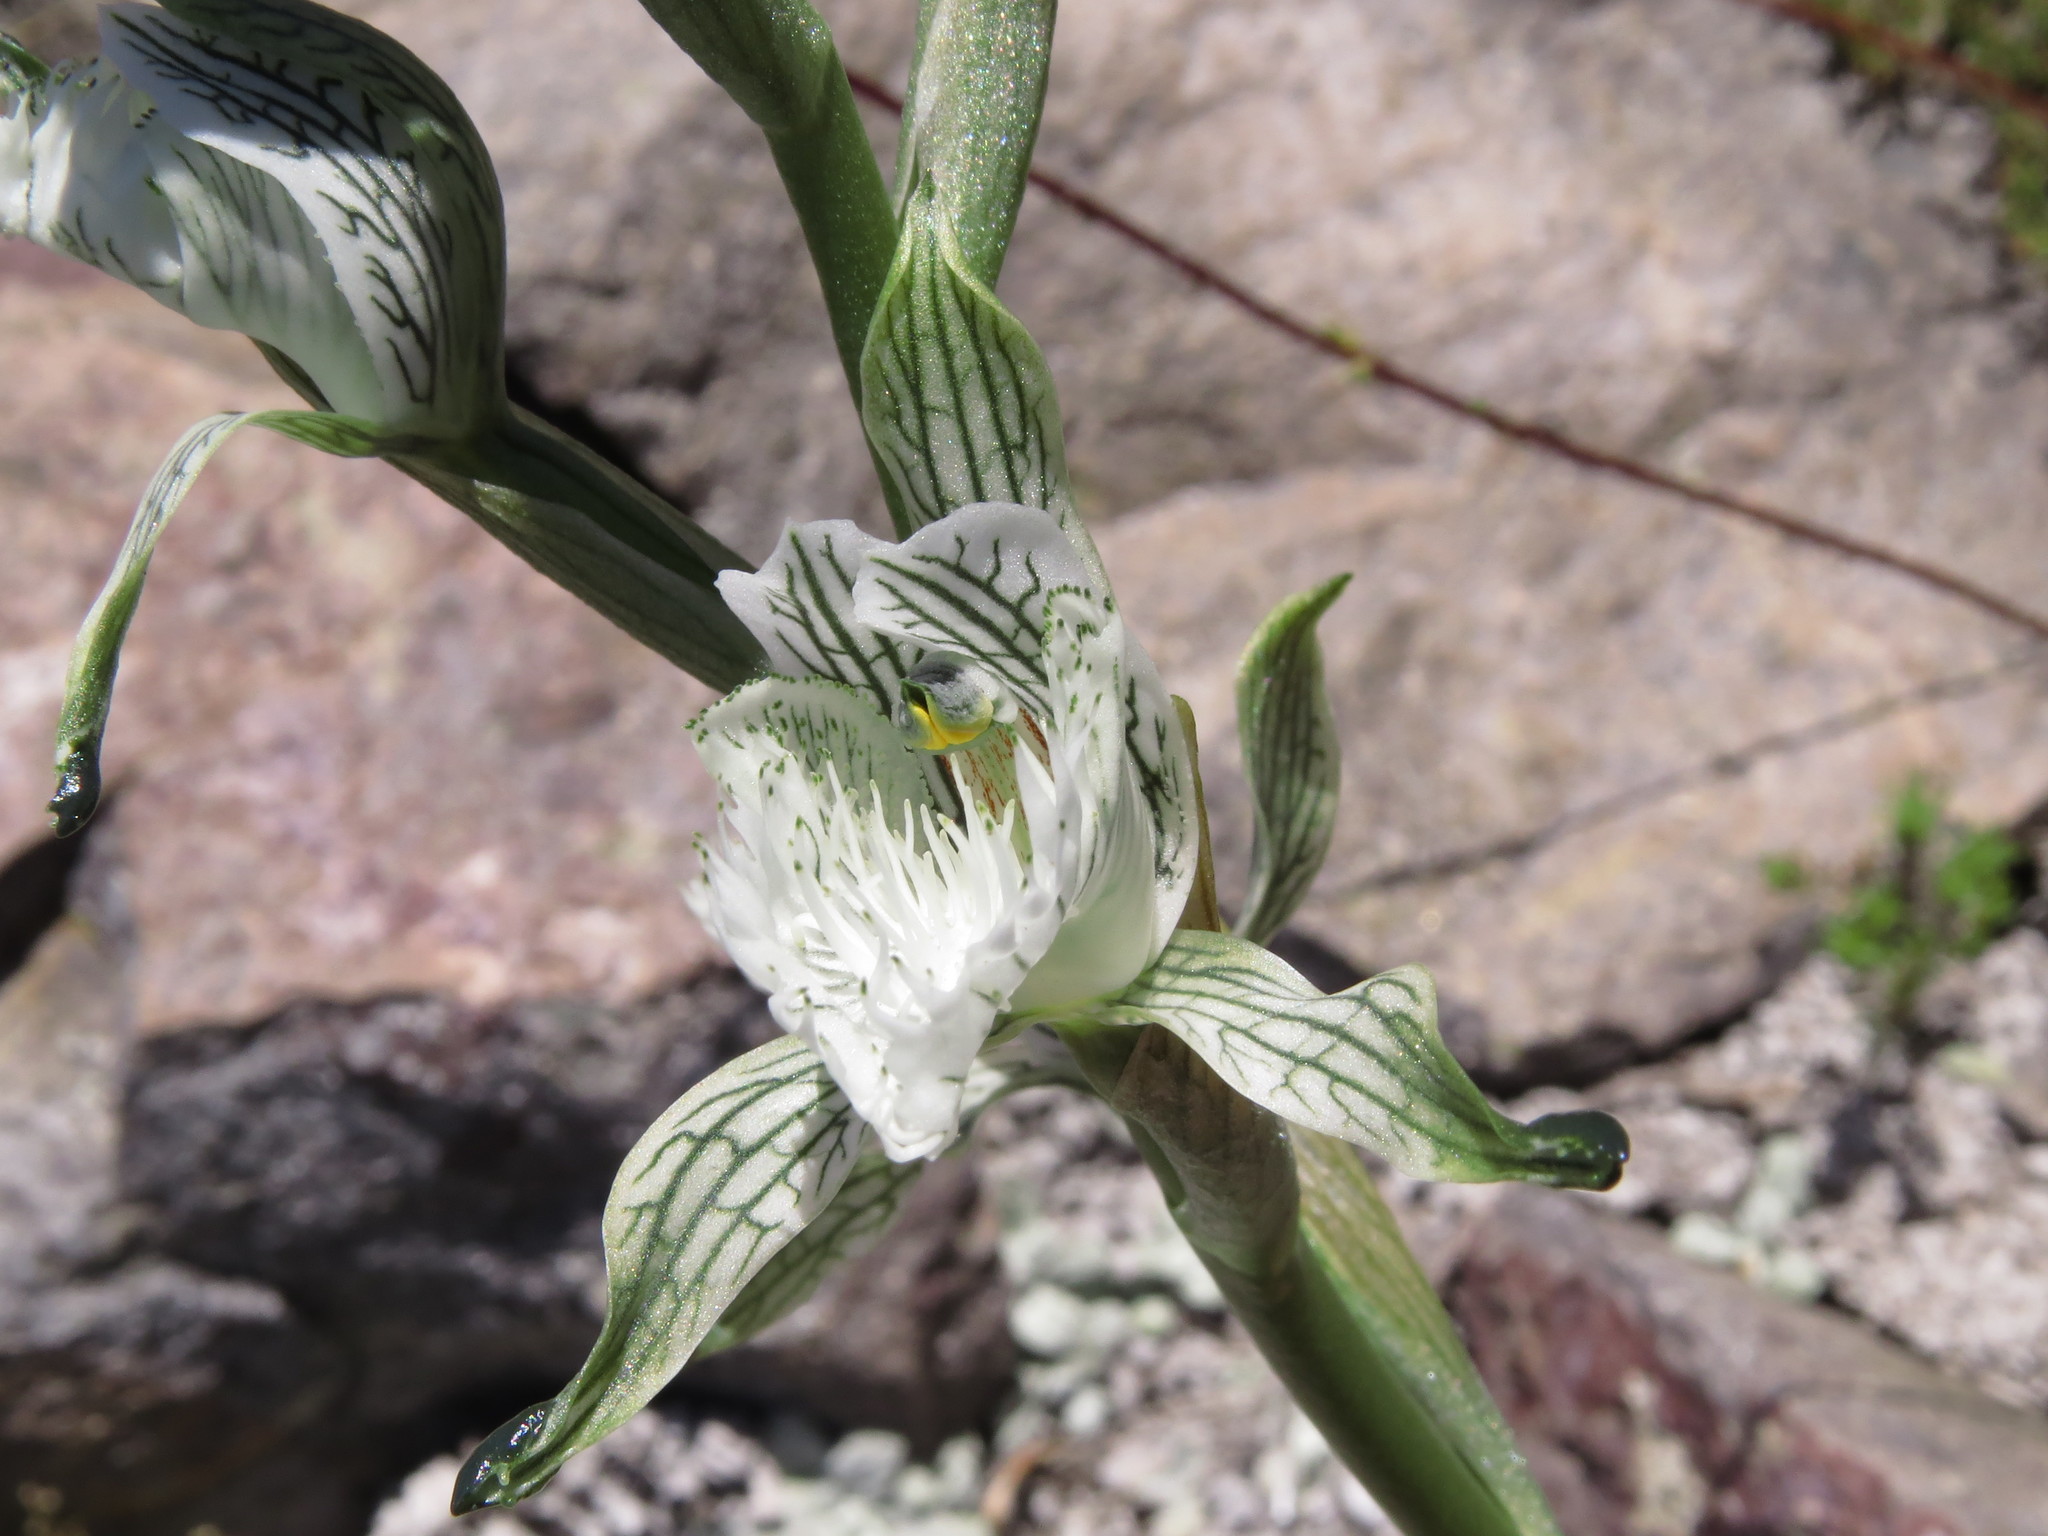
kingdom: Plantae
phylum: Tracheophyta
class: Liliopsida
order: Asparagales
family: Orchidaceae
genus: Chloraea
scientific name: Chloraea prodigiosa
